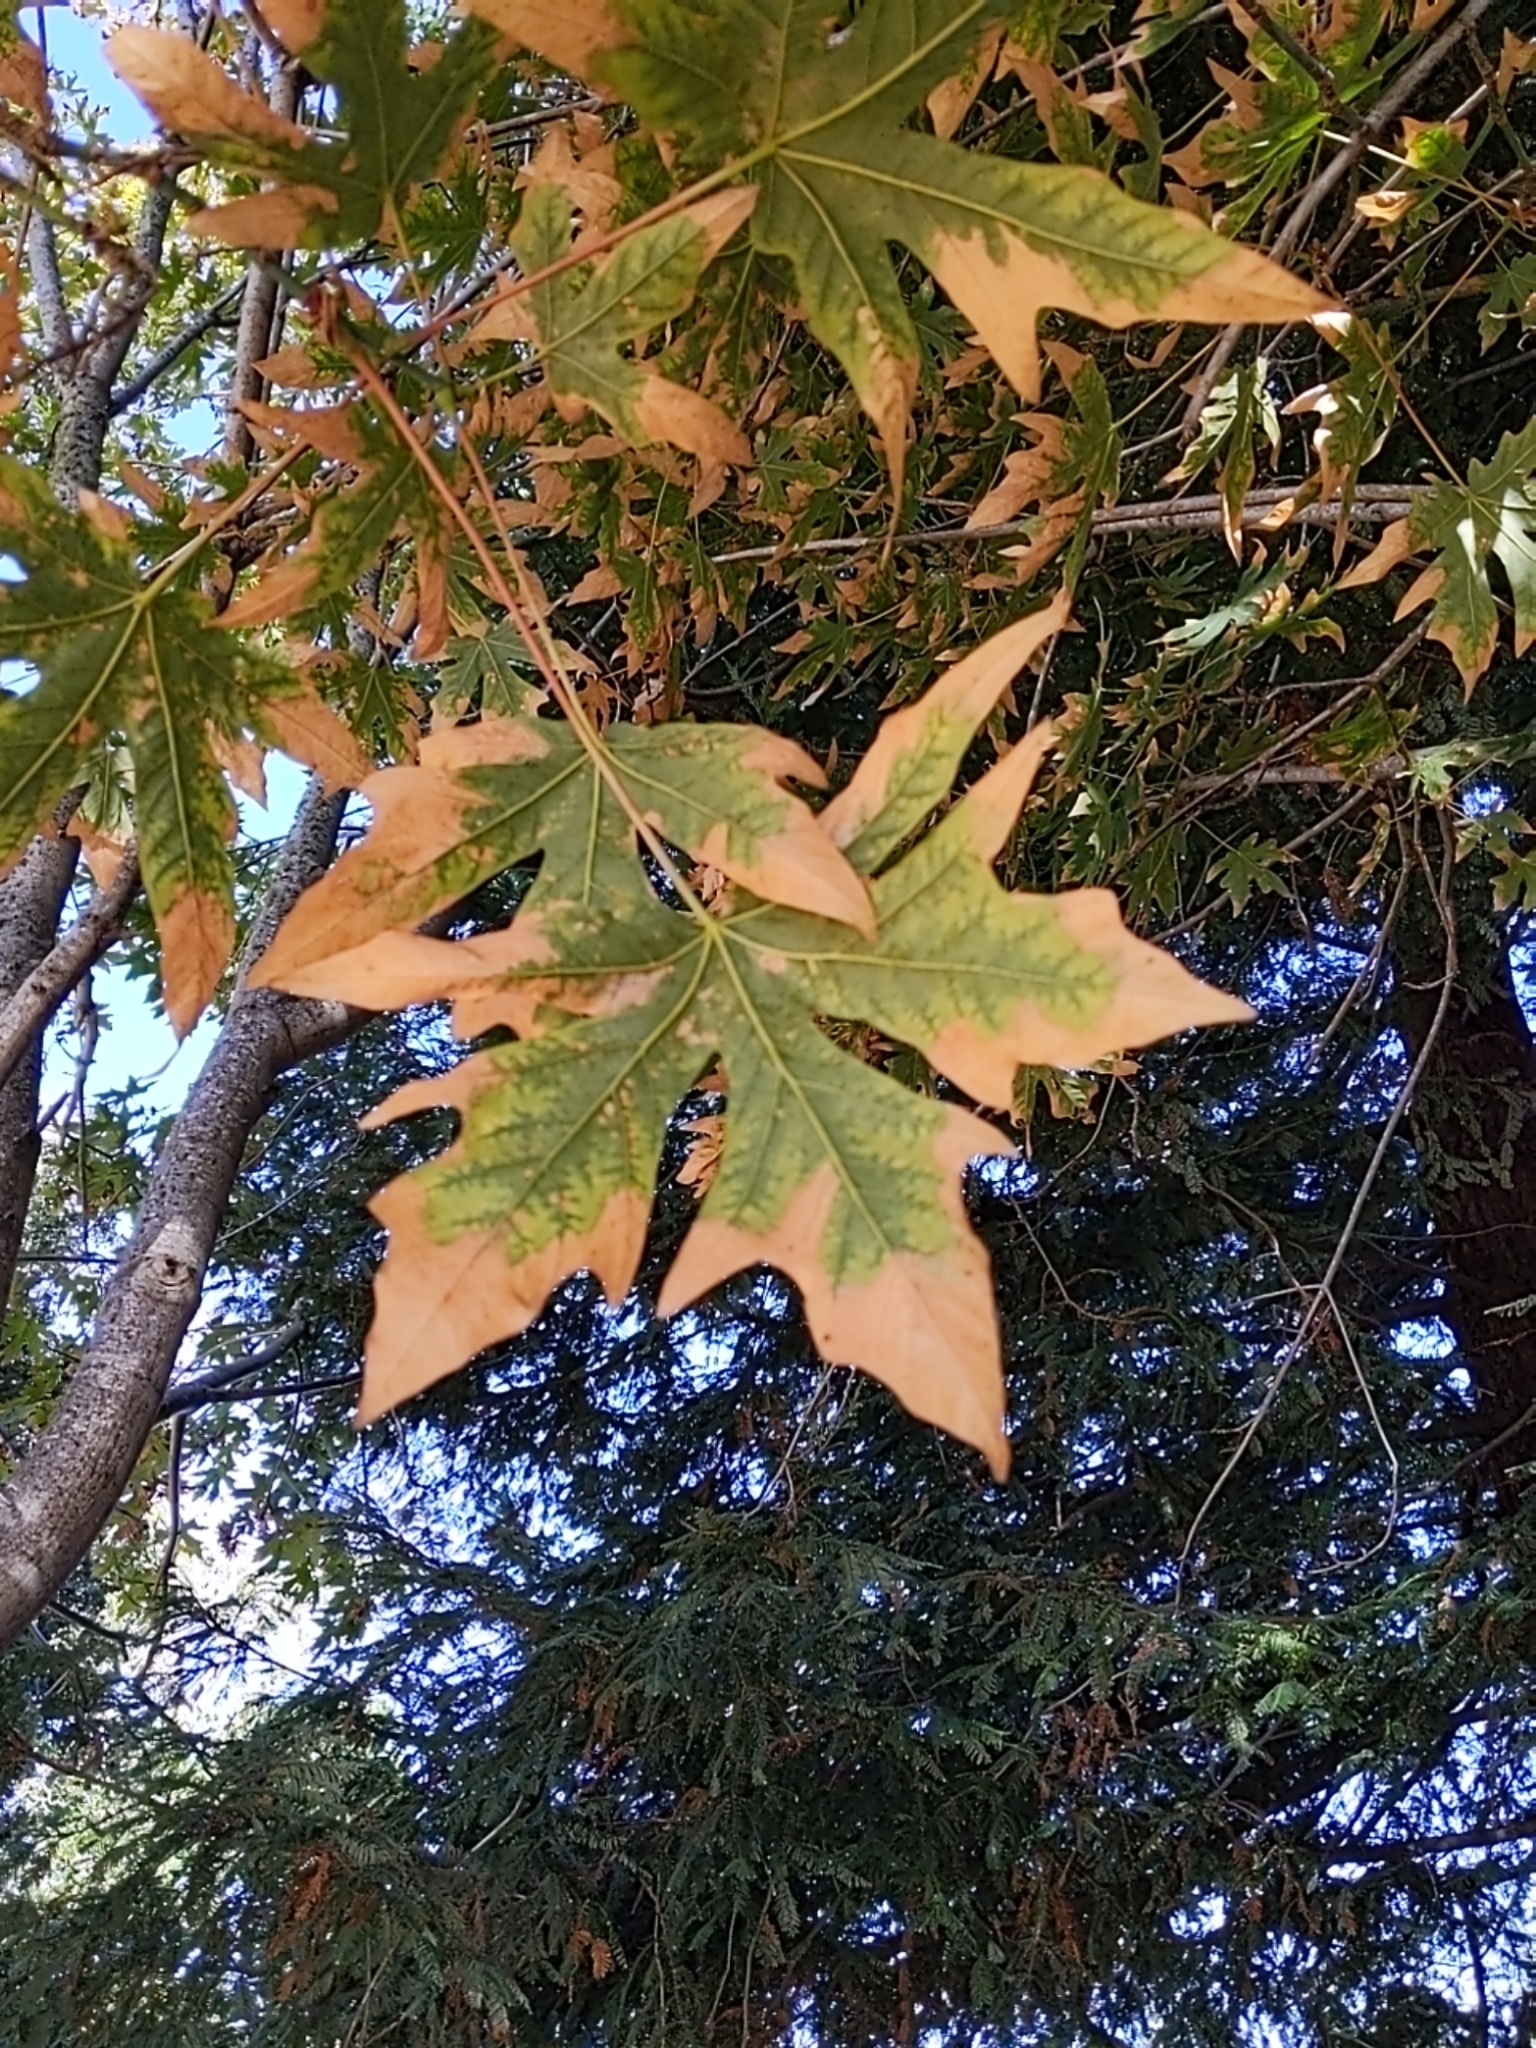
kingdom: Plantae
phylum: Tracheophyta
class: Magnoliopsida
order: Sapindales
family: Sapindaceae
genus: Acer
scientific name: Acer macrophyllum
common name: Oregon maple
